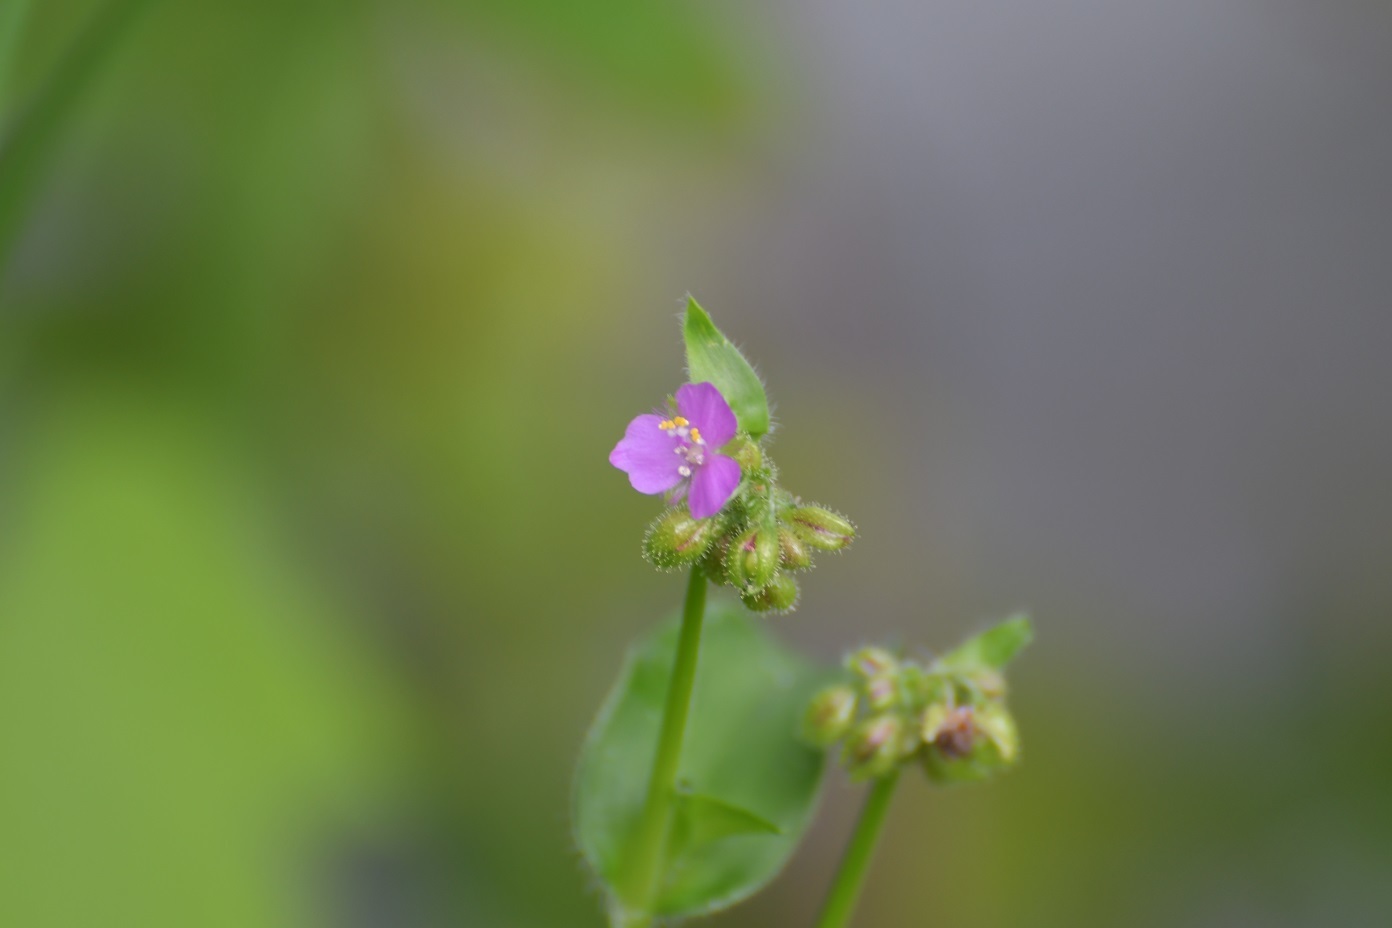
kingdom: Plantae
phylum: Tracheophyta
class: Liliopsida
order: Commelinales
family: Commelinaceae
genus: Callisia
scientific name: Callisia purpurascens
